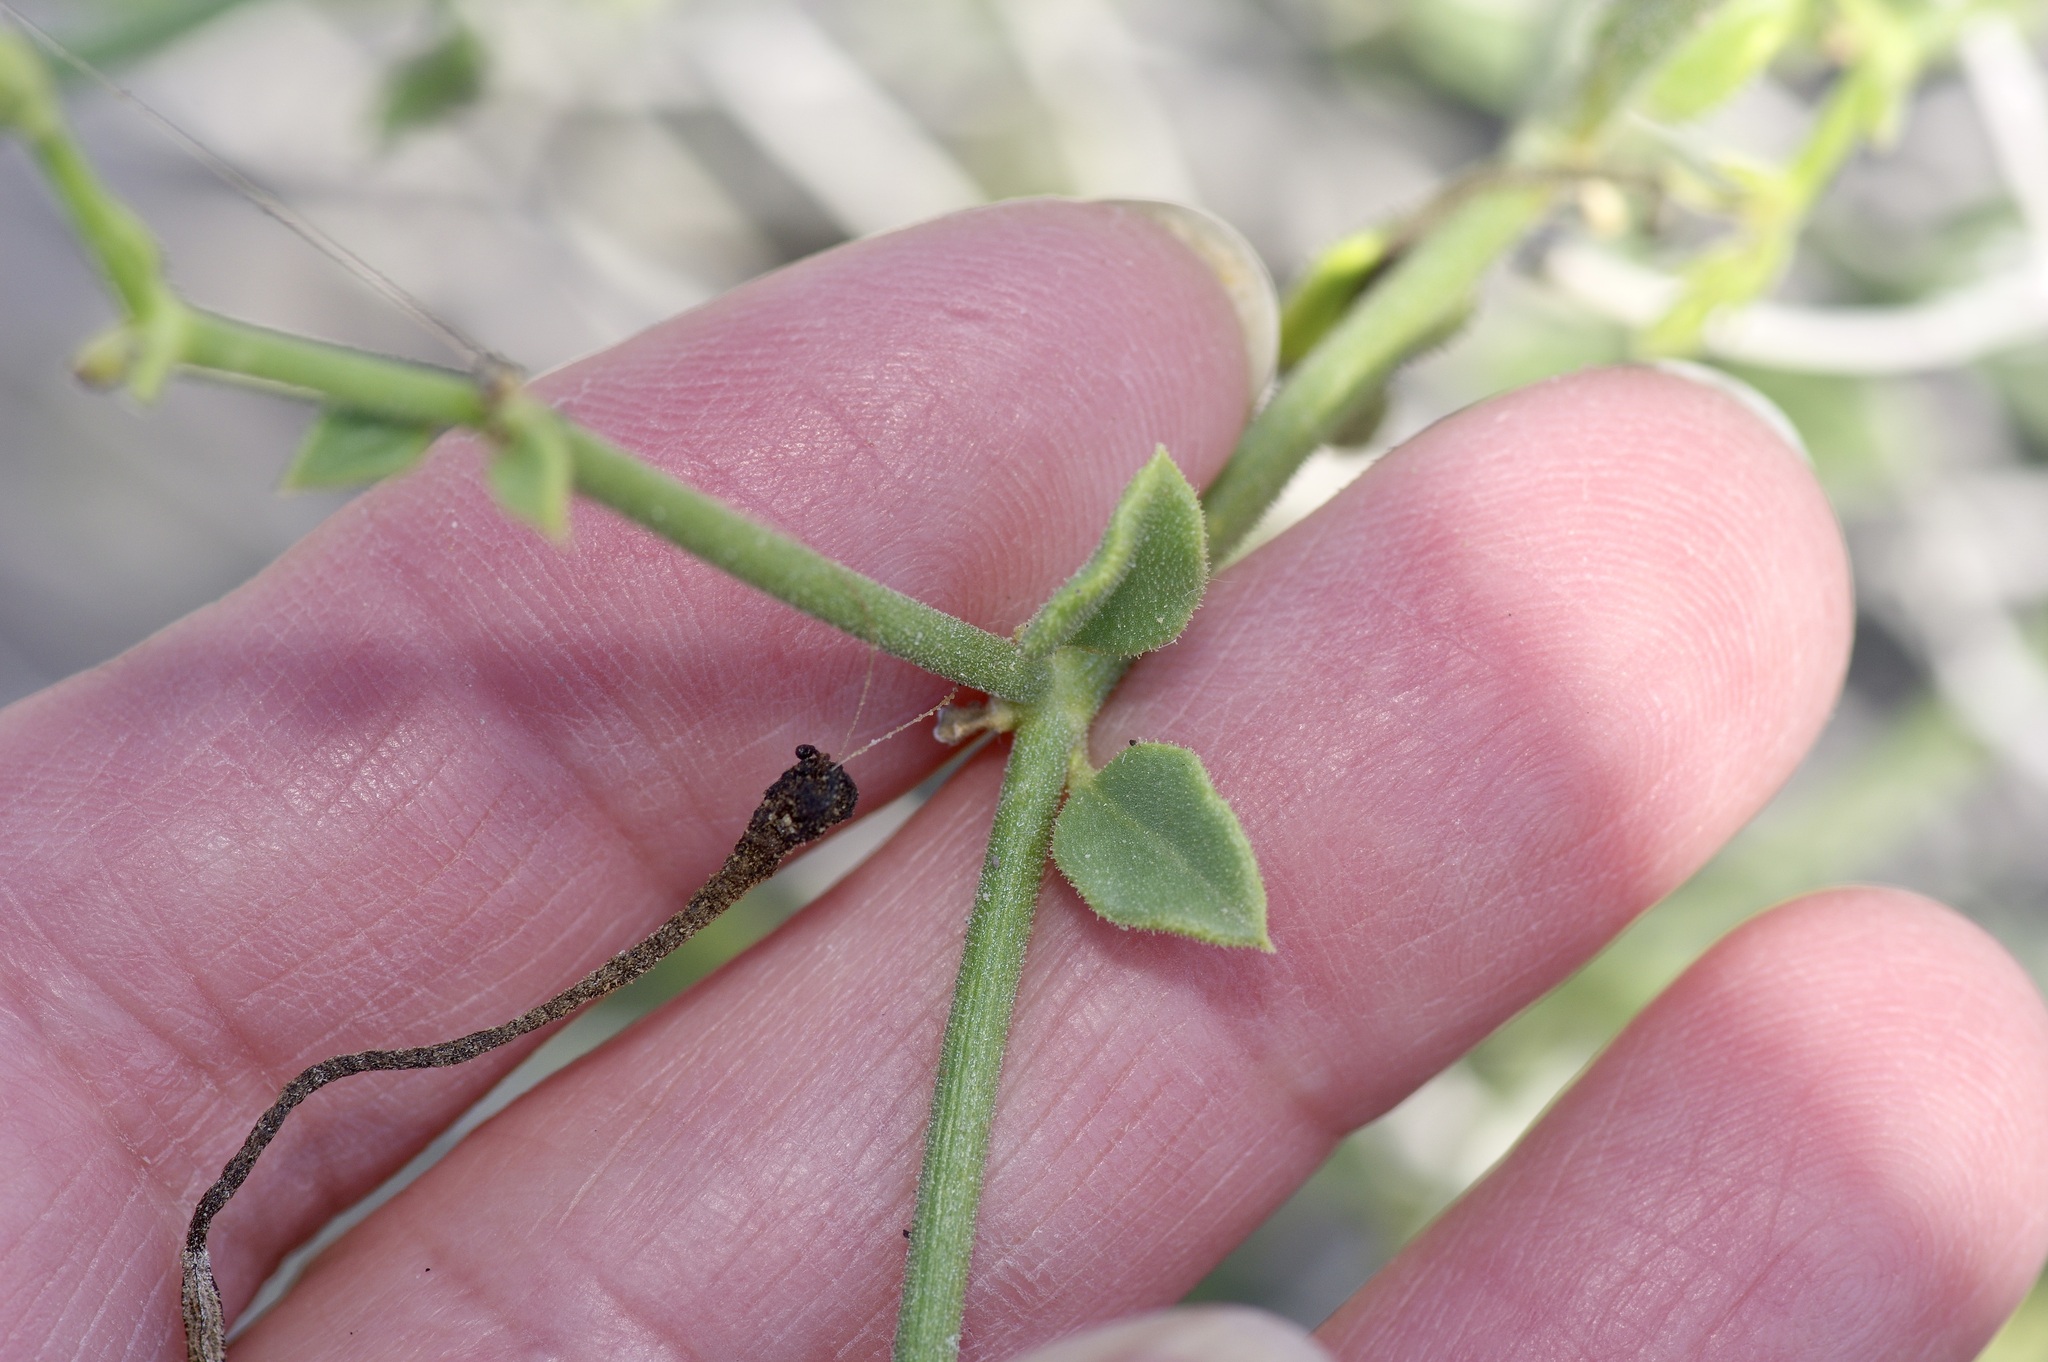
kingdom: Plantae
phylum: Tracheophyta
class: Magnoliopsida
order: Caryophyllales
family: Nyctaginaceae
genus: Acleisanthes
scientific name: Acleisanthes parvifolia
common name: Littleleaf moonpod
